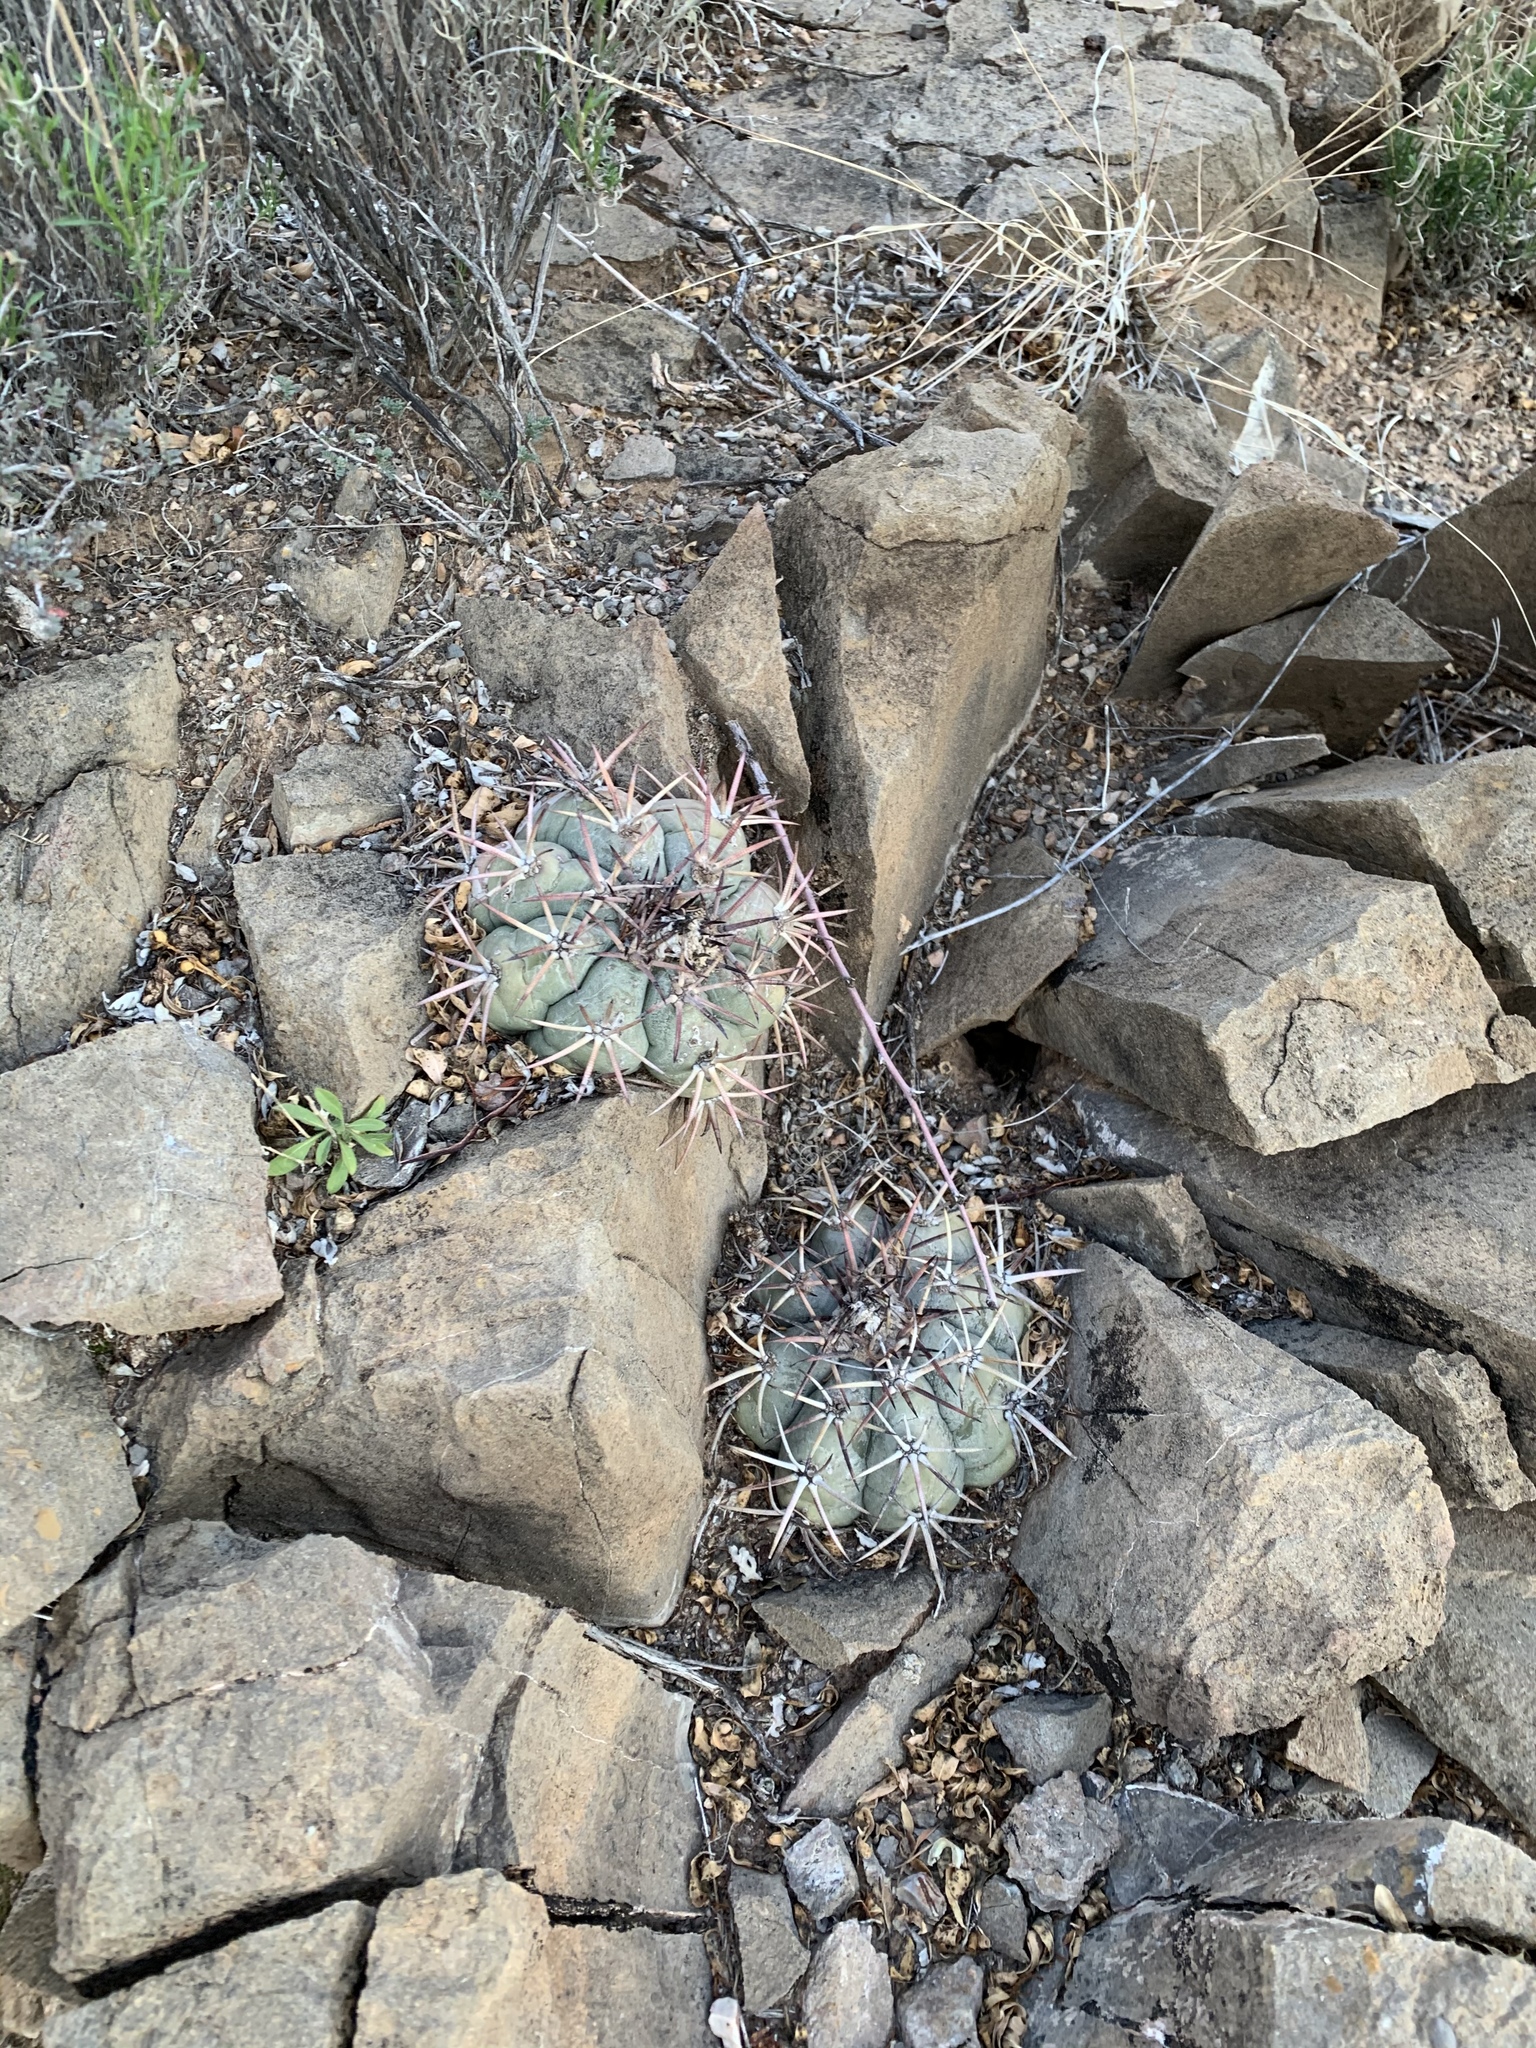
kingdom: Plantae
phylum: Tracheophyta
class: Magnoliopsida
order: Caryophyllales
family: Cactaceae
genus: Echinocactus
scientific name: Echinocactus horizonthalonius
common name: Devilshead
